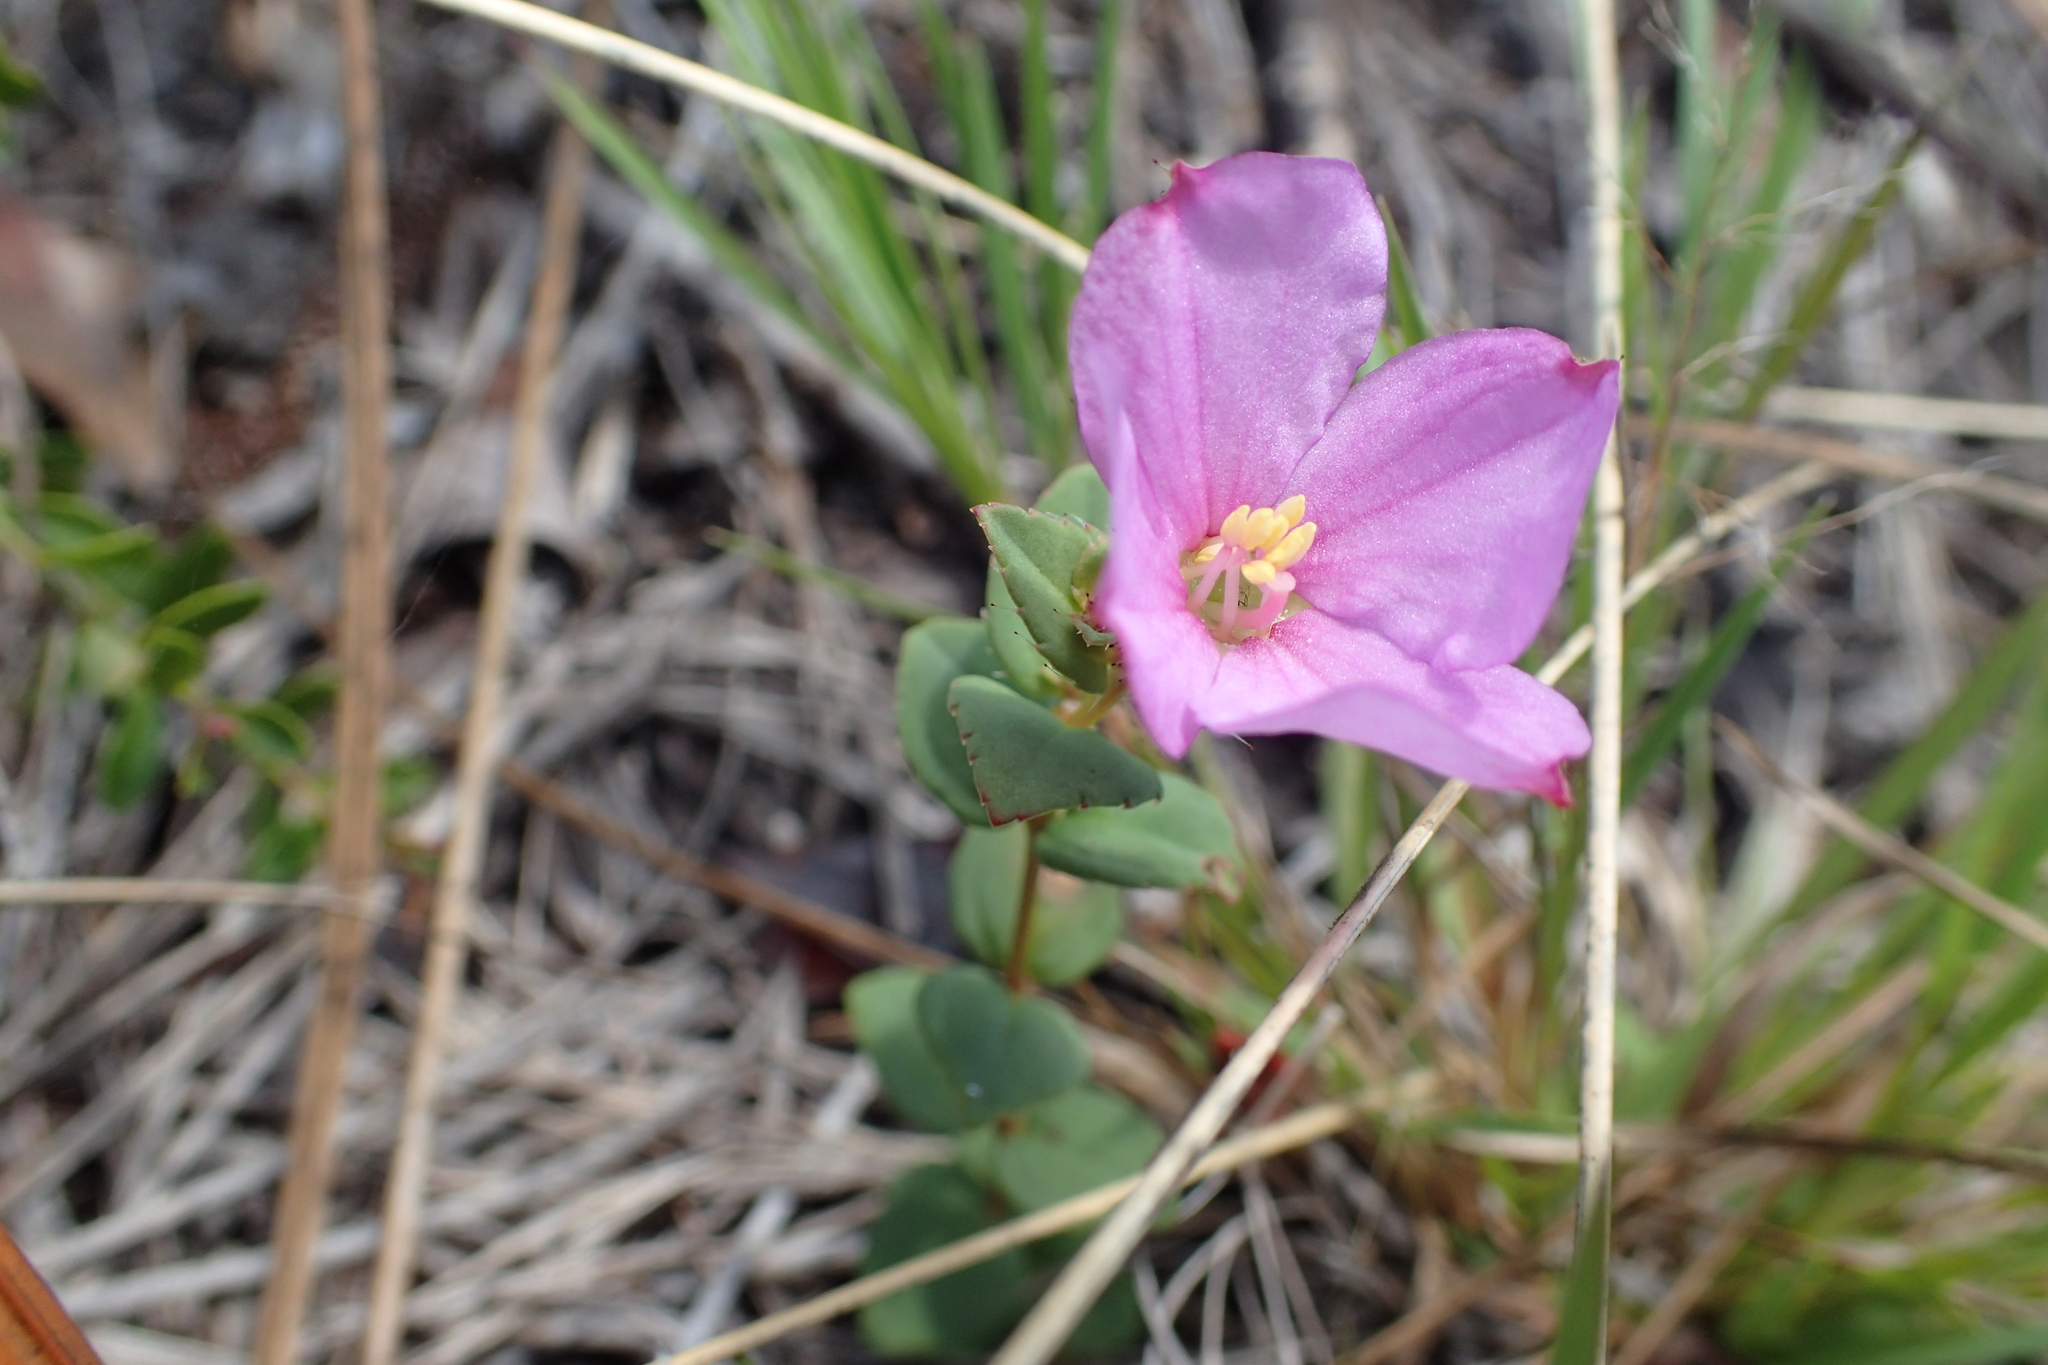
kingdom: Plantae
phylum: Tracheophyta
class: Magnoliopsida
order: Myrtales
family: Melastomataceae
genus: Rhexia
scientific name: Rhexia nuttallii
